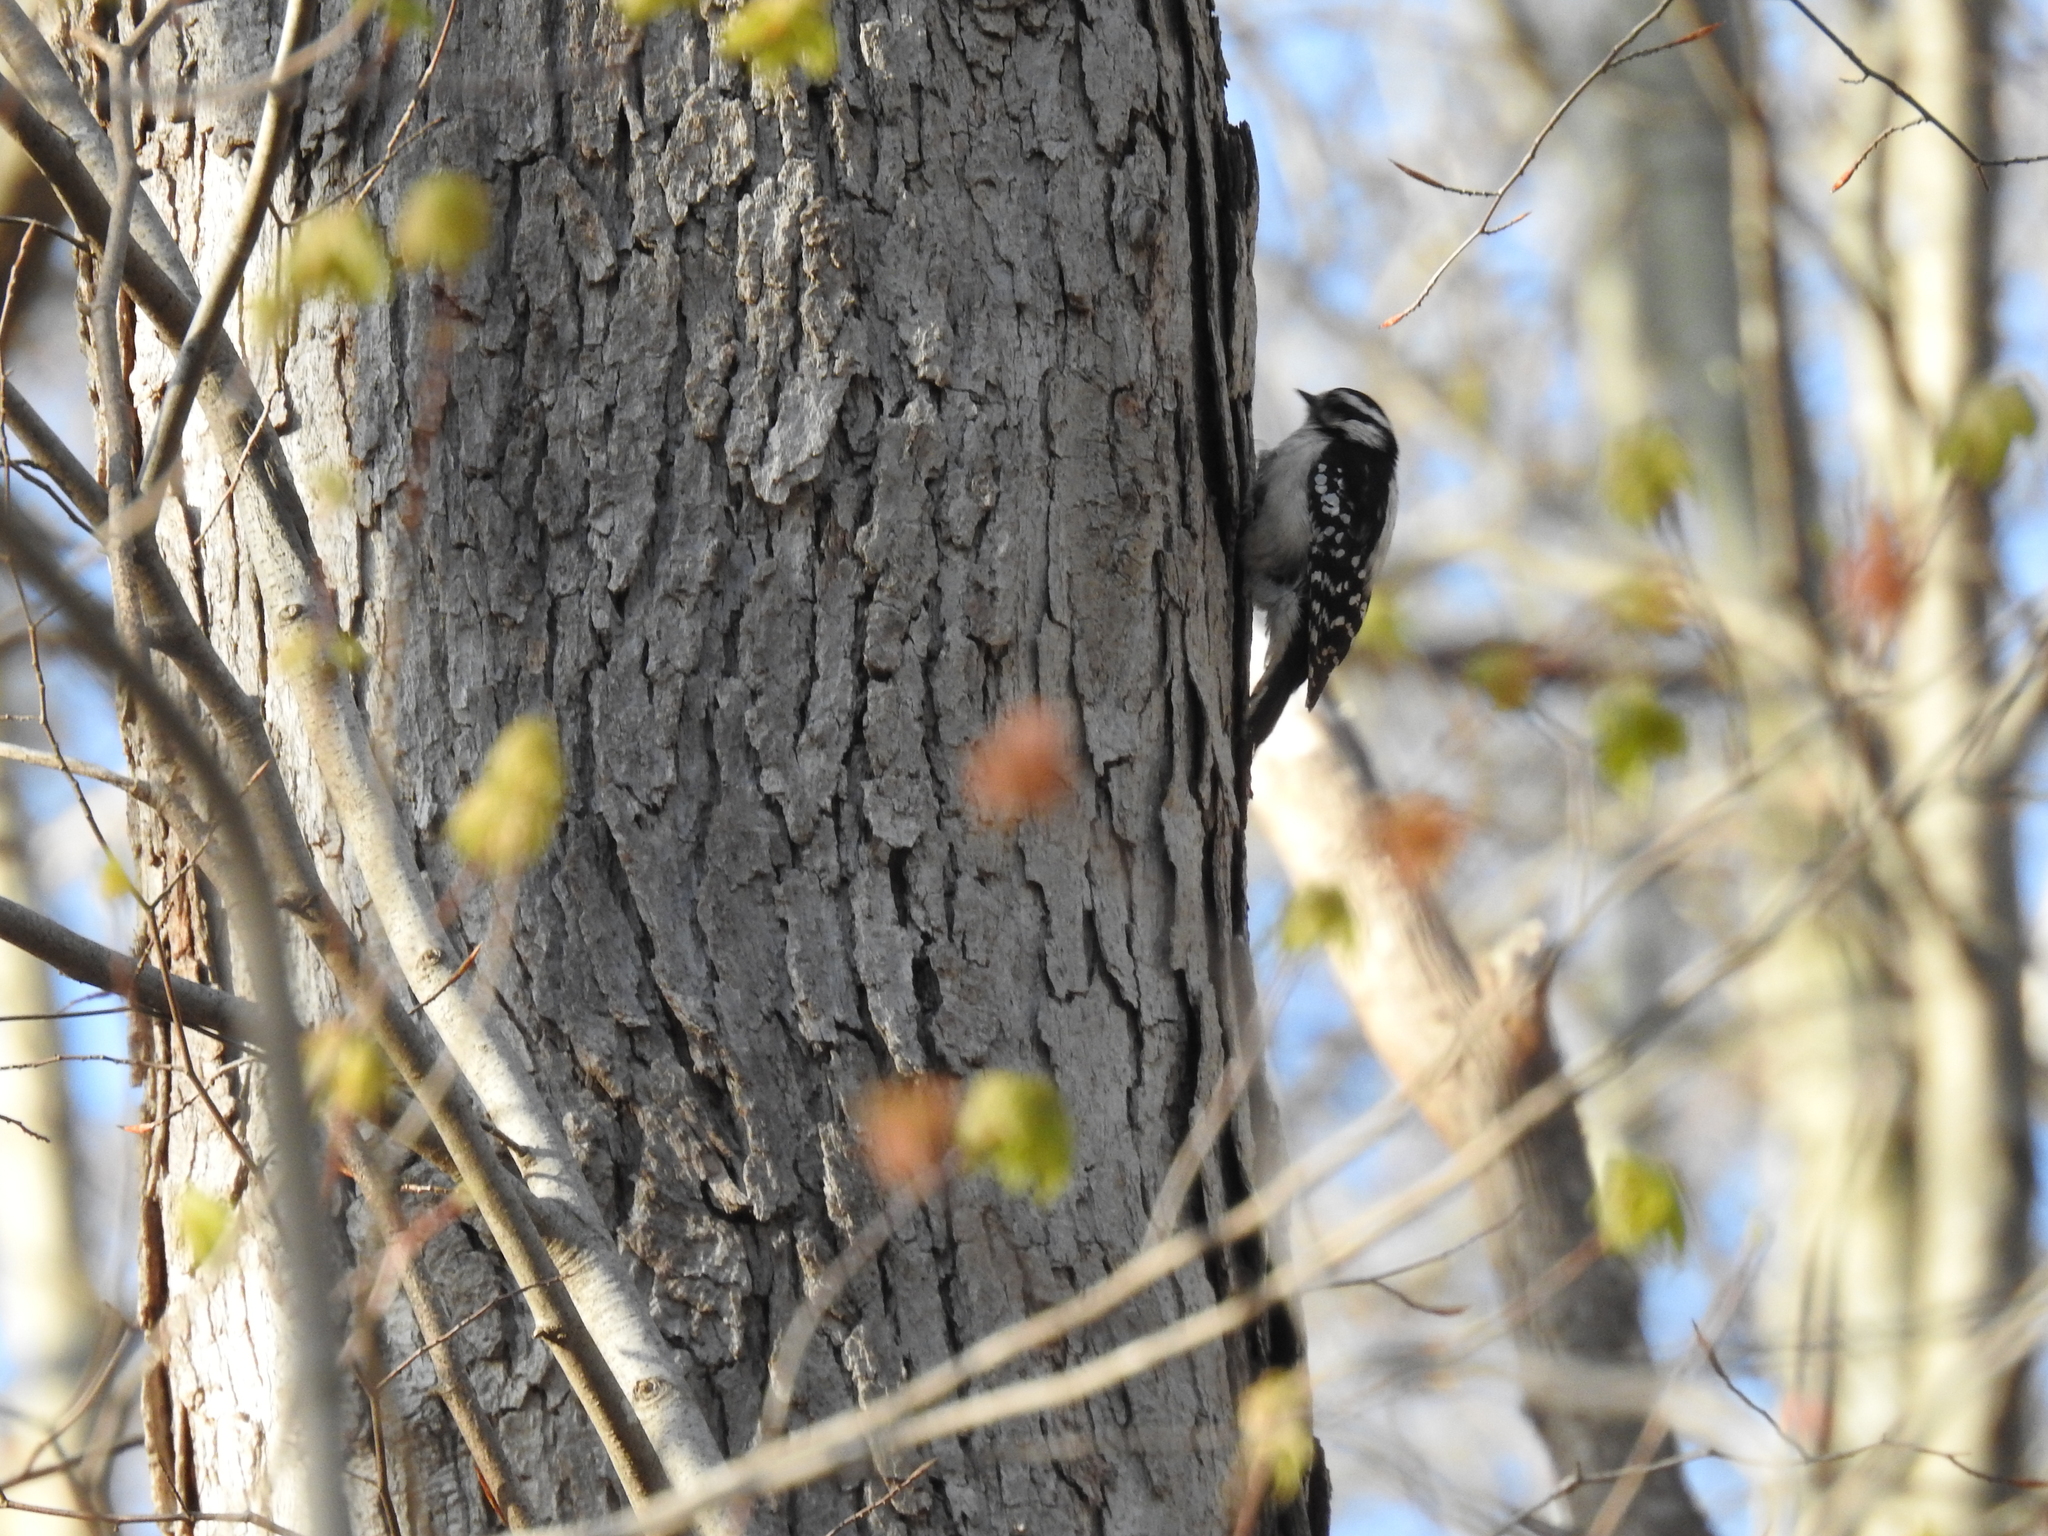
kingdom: Animalia
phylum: Chordata
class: Aves
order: Piciformes
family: Picidae
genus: Dryobates
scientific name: Dryobates pubescens
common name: Downy woodpecker
